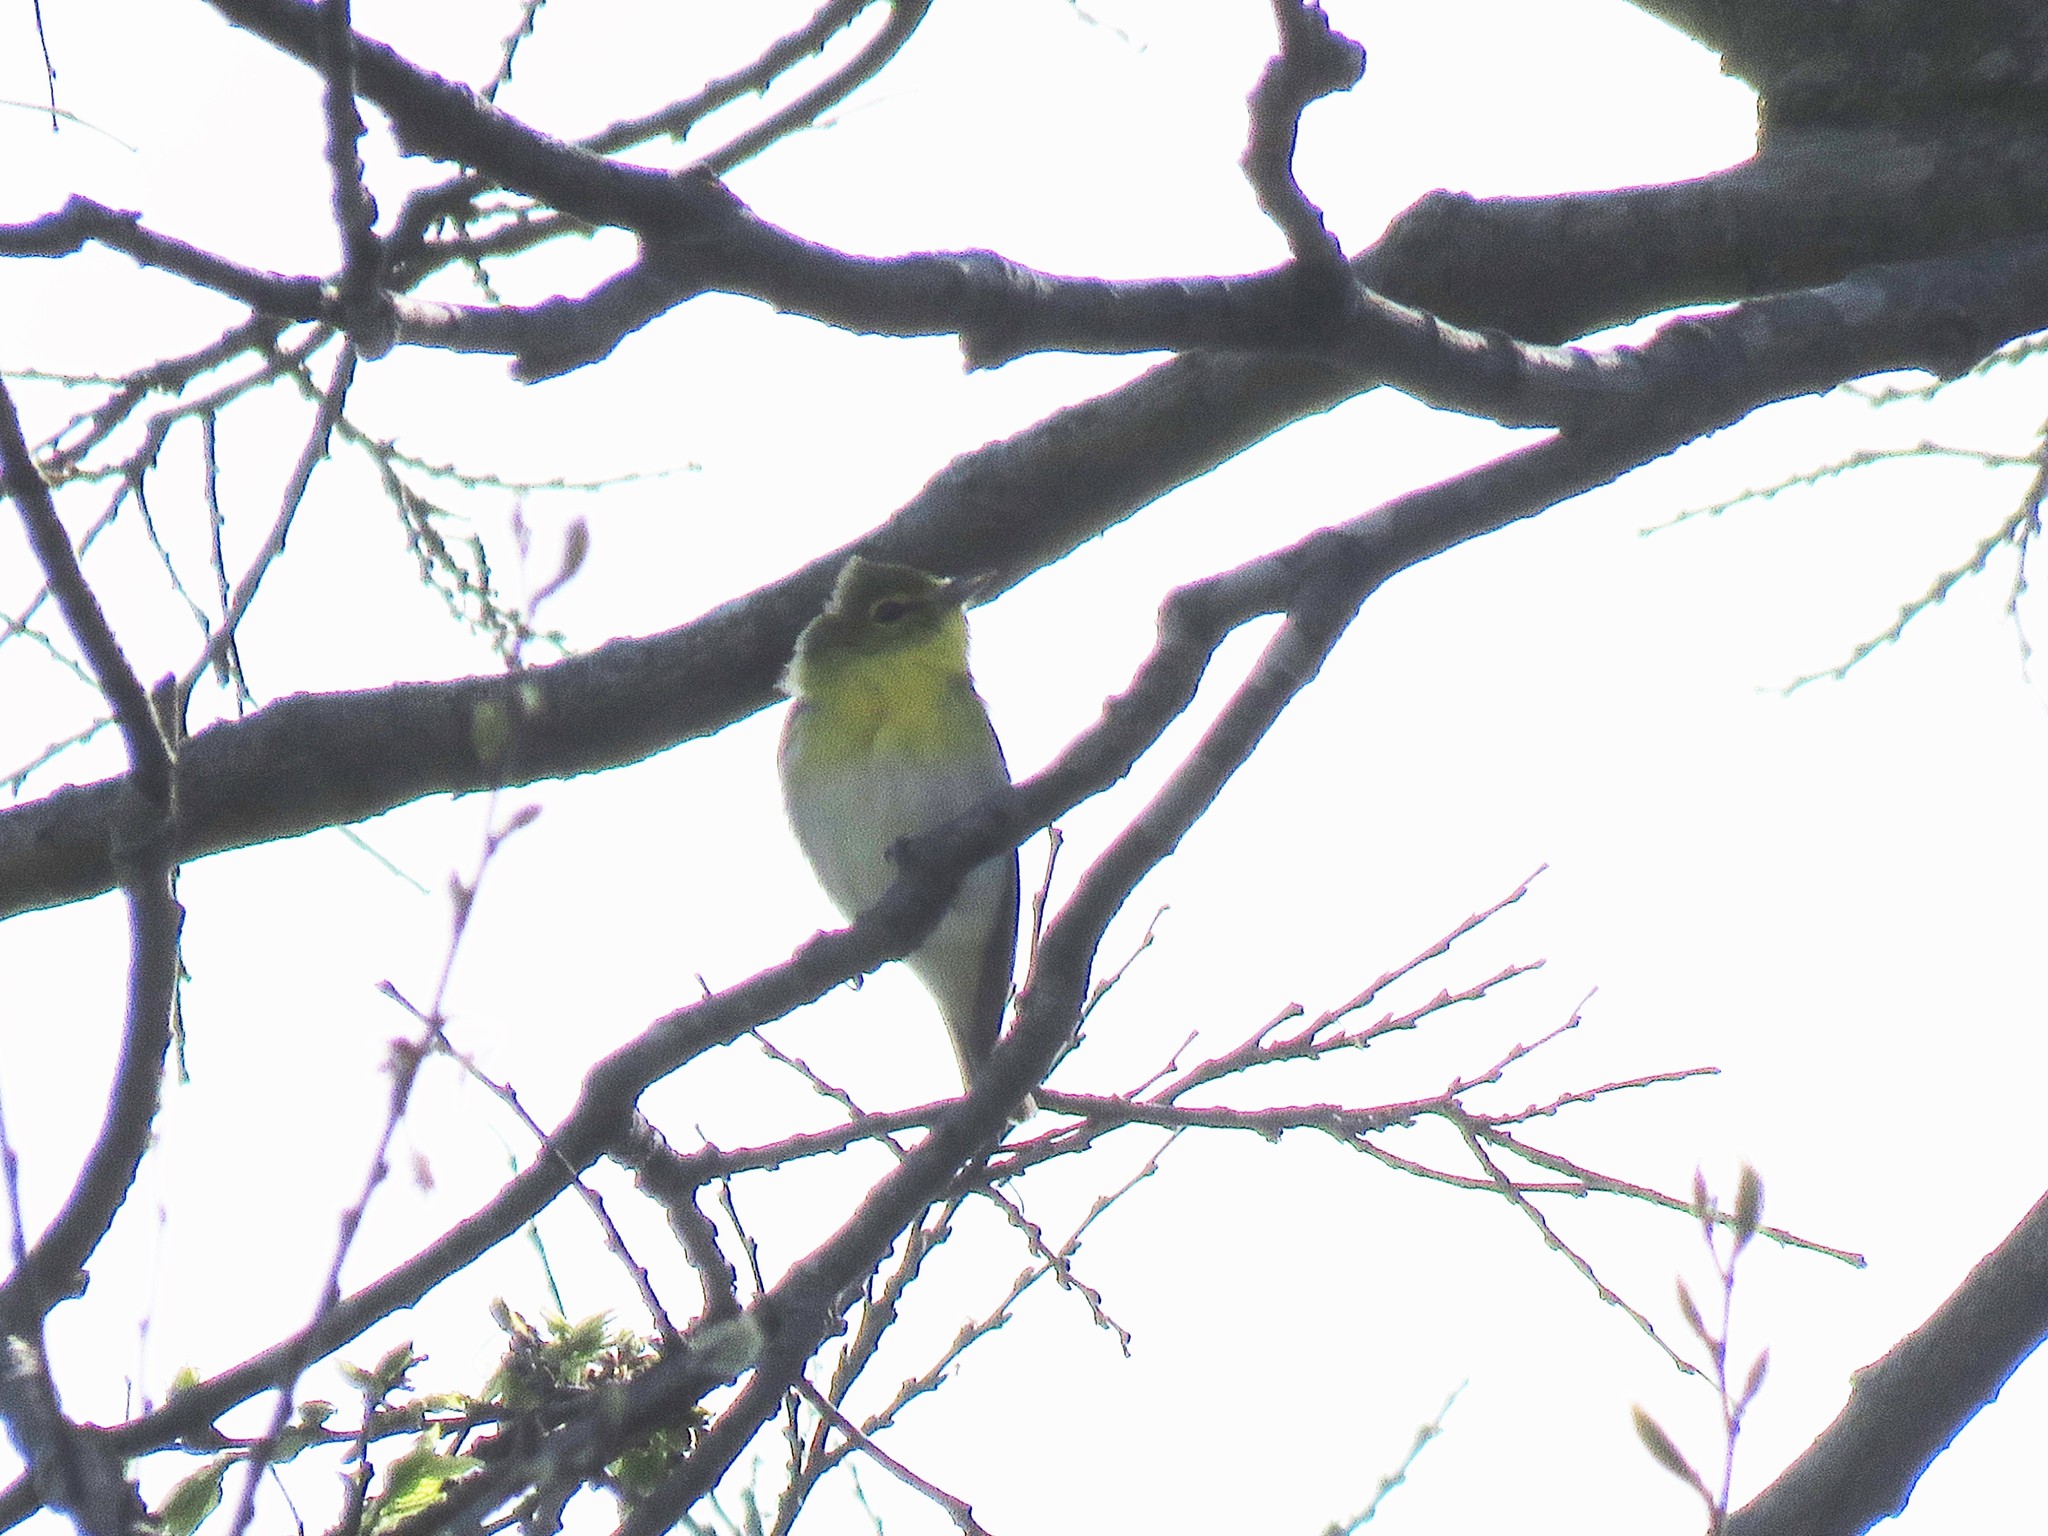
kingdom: Animalia
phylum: Chordata
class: Aves
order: Passeriformes
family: Vireonidae
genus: Vireo
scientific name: Vireo flavifrons
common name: Yellow-throated vireo
